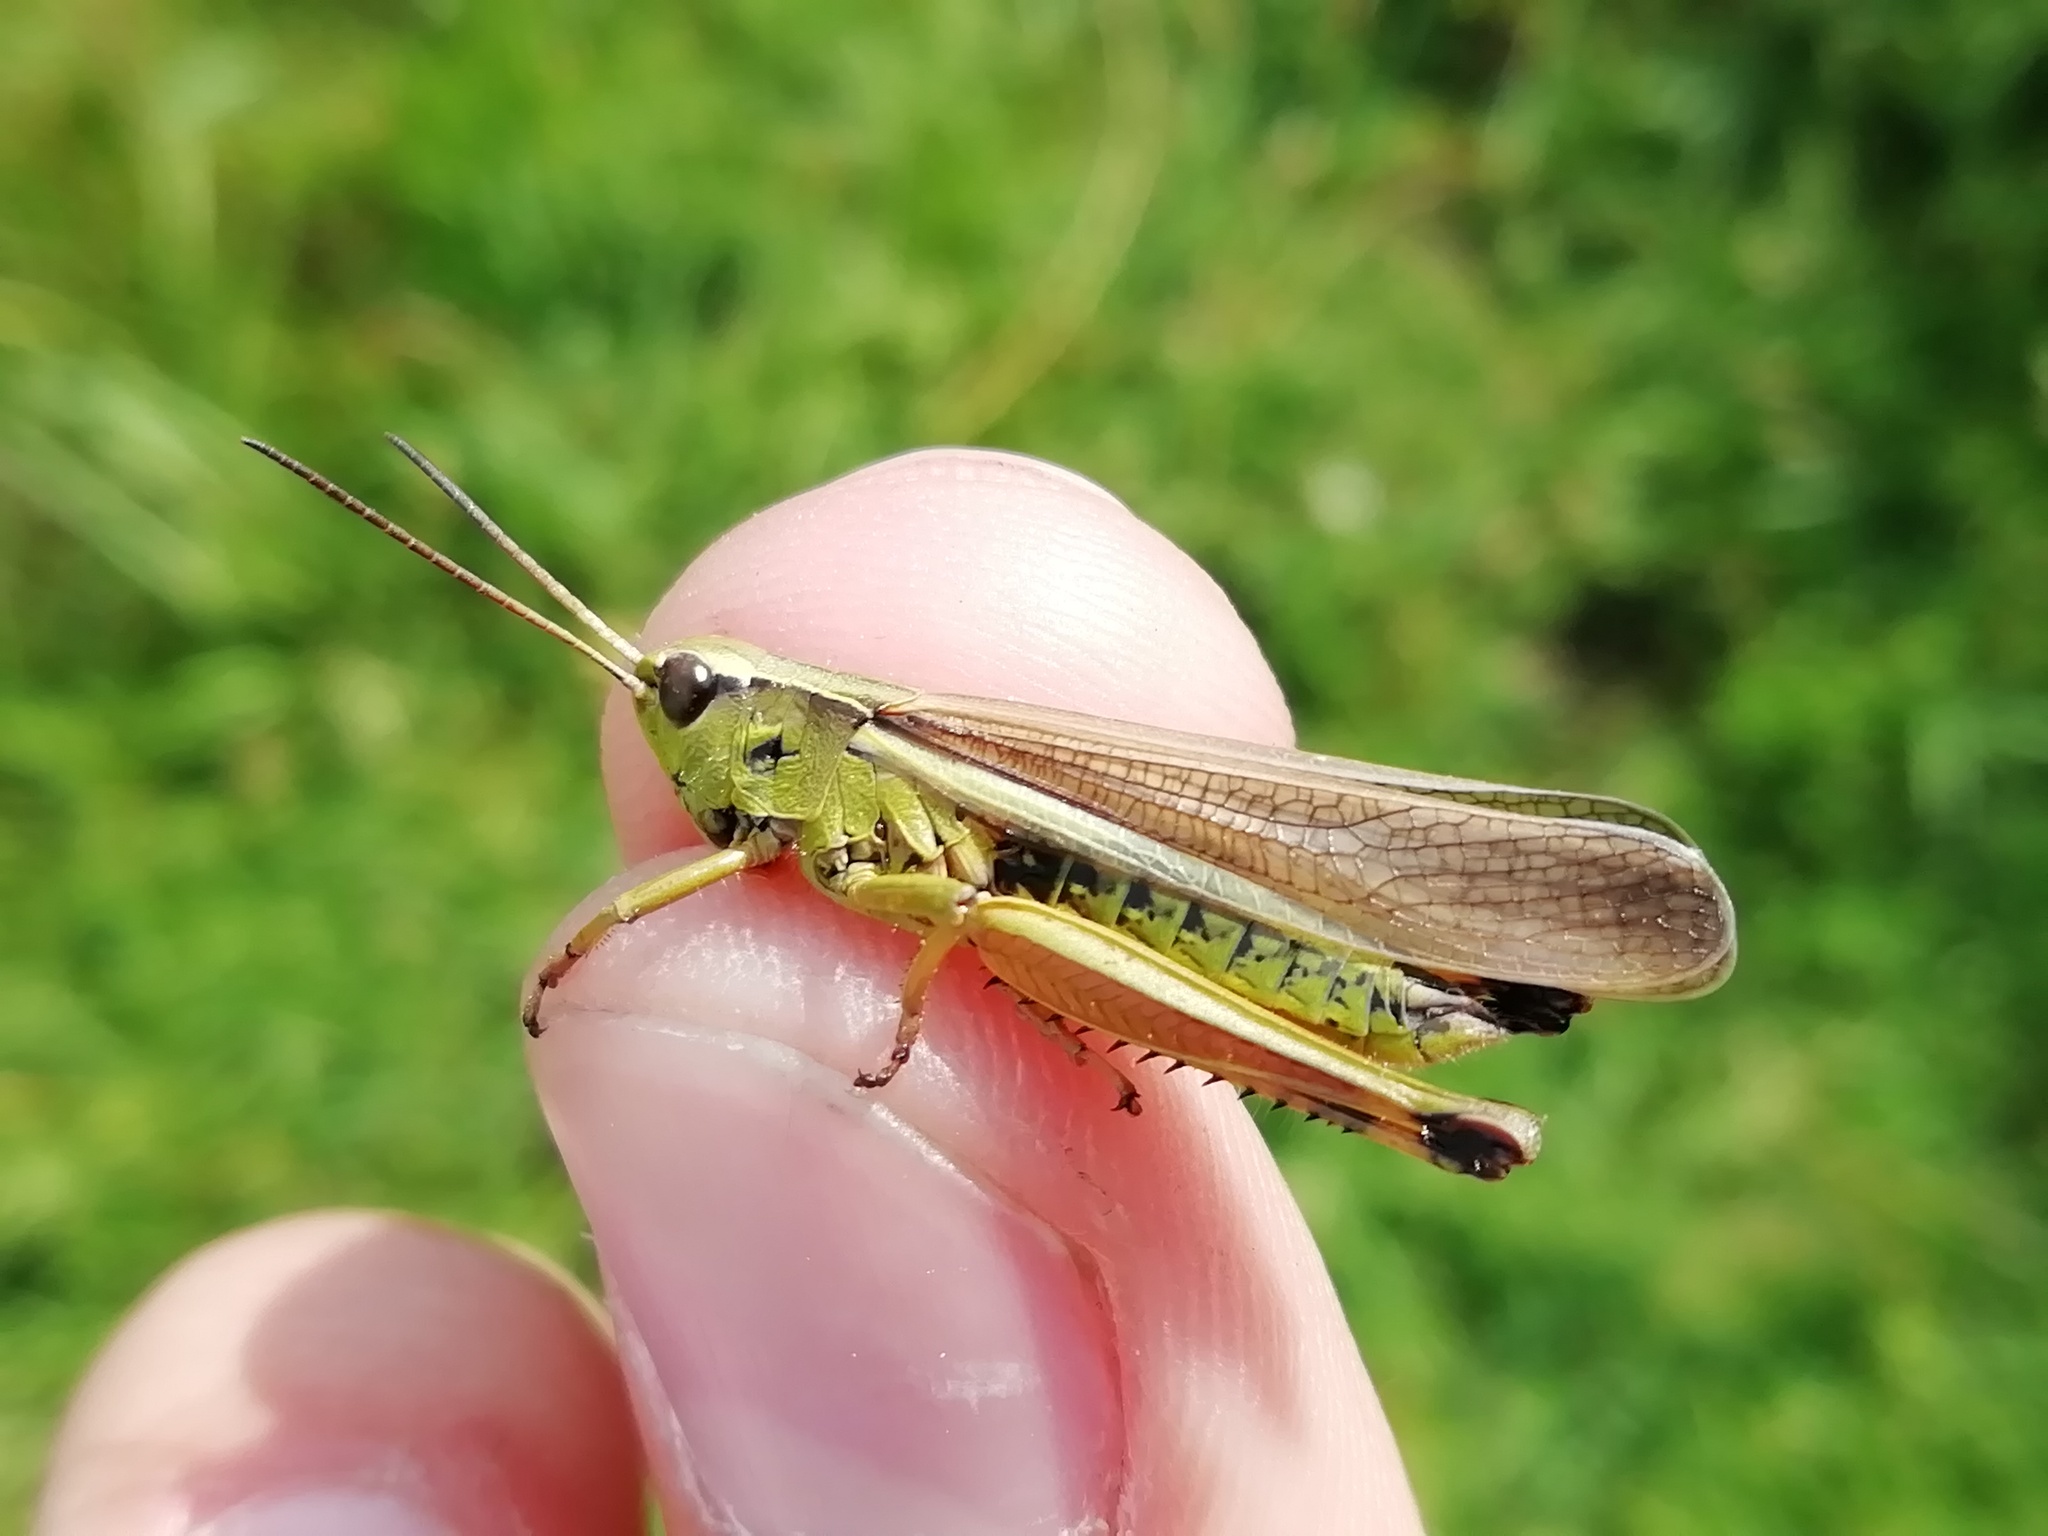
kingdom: Animalia
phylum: Arthropoda
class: Insecta
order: Orthoptera
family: Acrididae
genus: Stethophyma
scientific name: Stethophyma grossum
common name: Large marsh grasshopper
